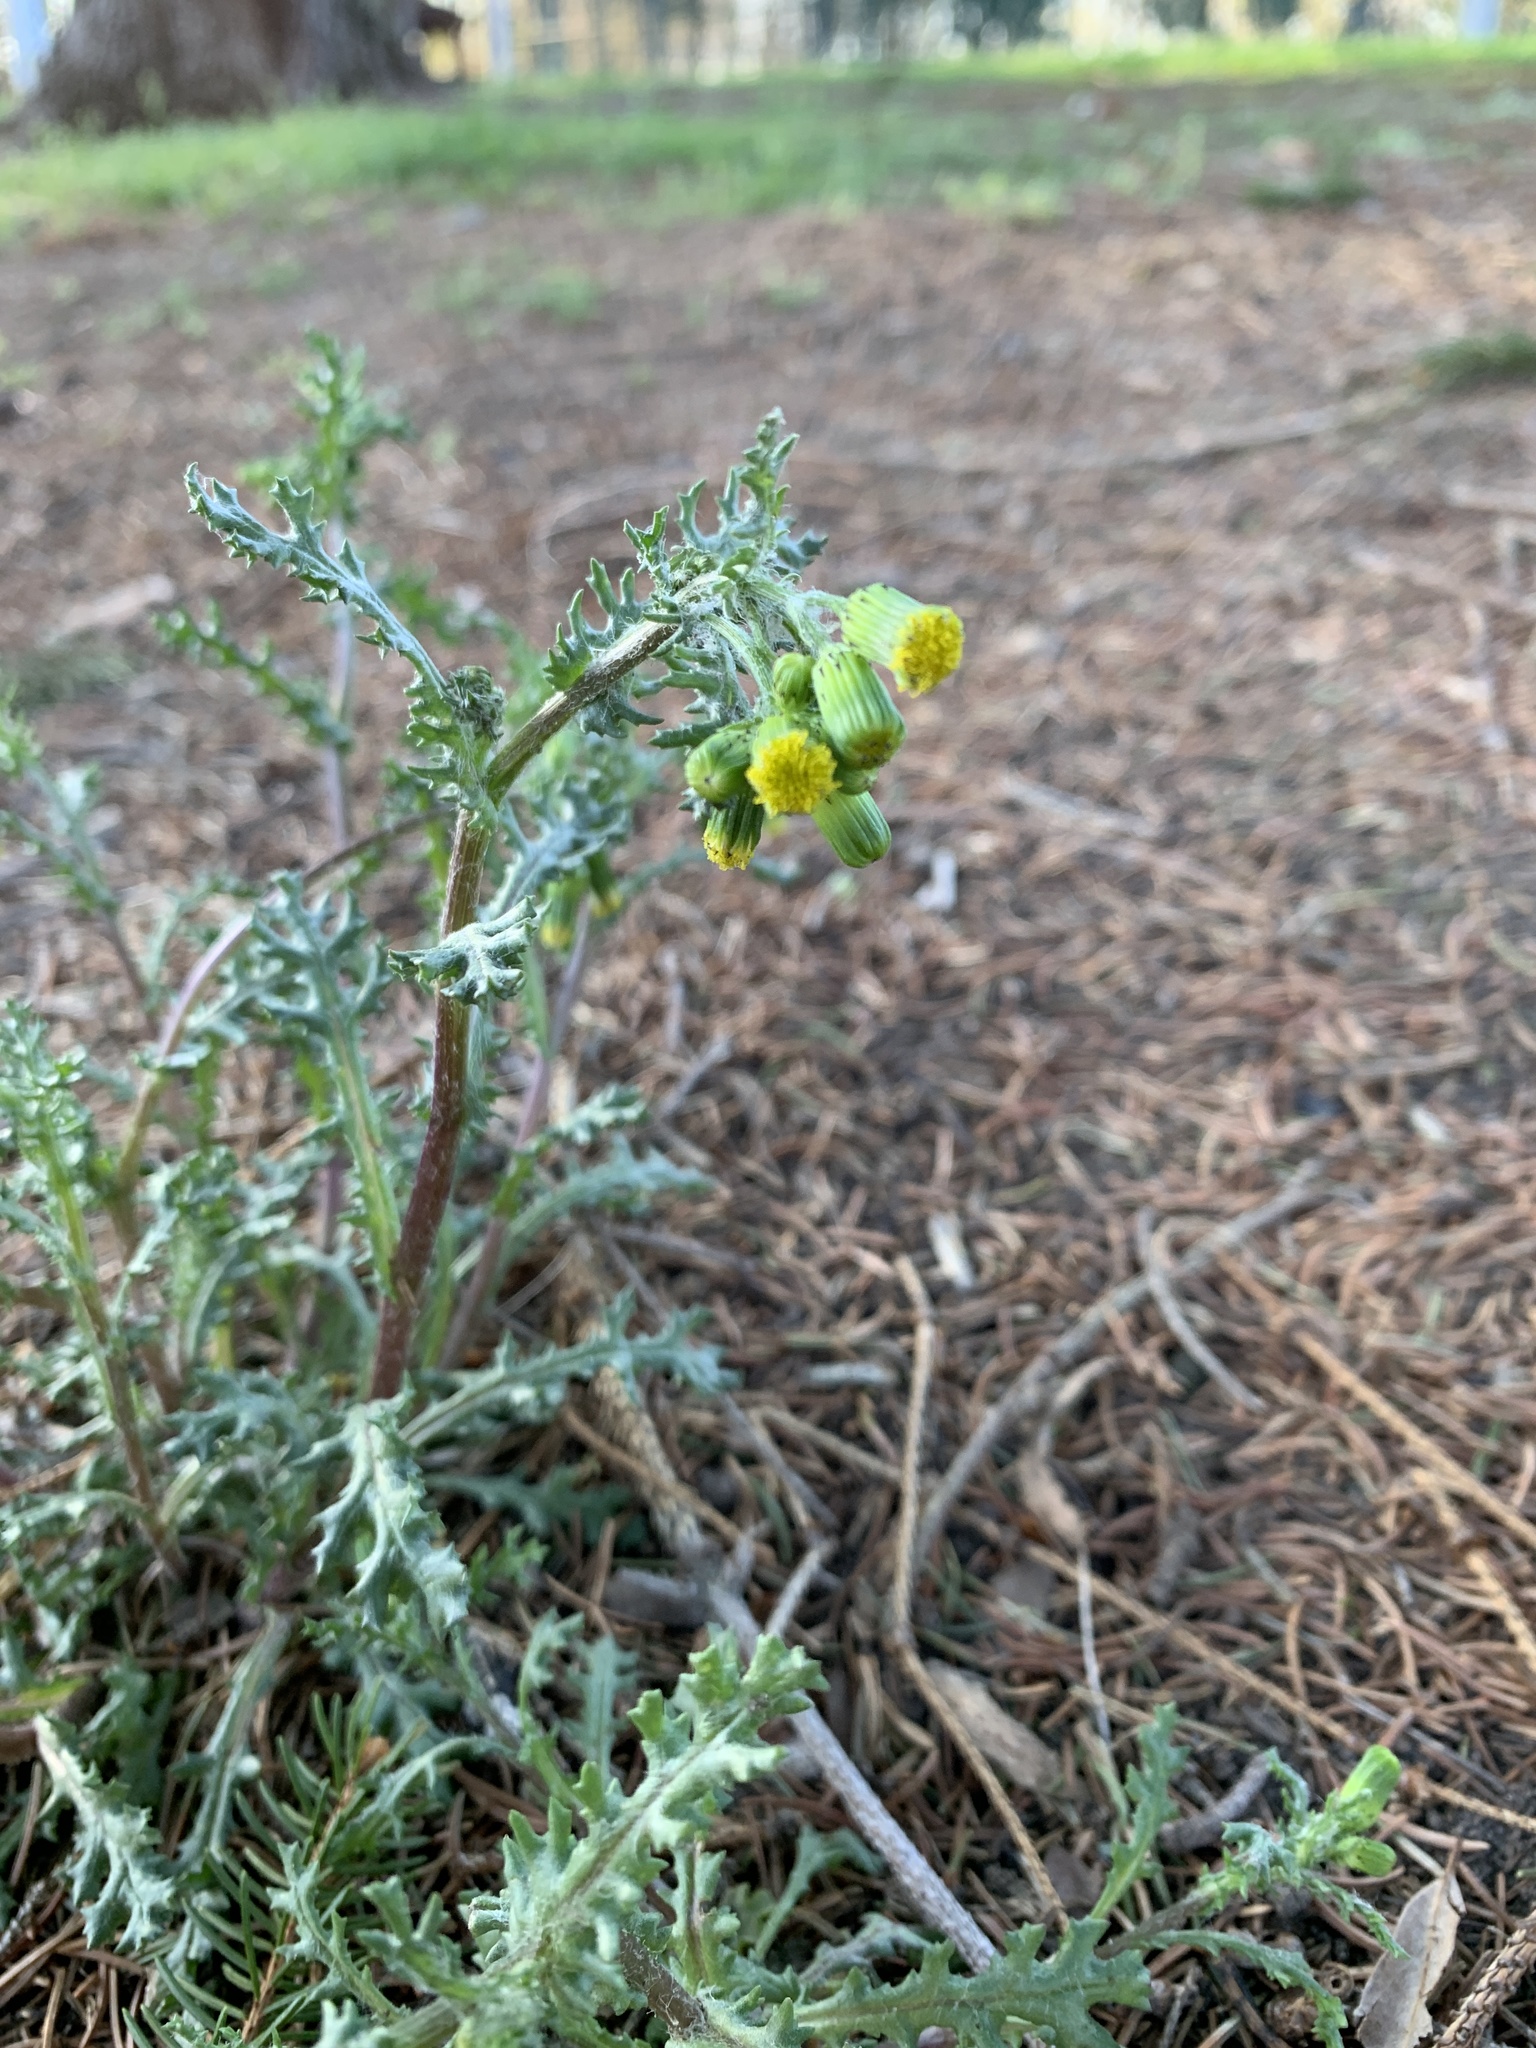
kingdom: Plantae
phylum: Tracheophyta
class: Magnoliopsida
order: Asterales
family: Asteraceae
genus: Senecio
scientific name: Senecio vulgaris
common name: Old-man-in-the-spring
